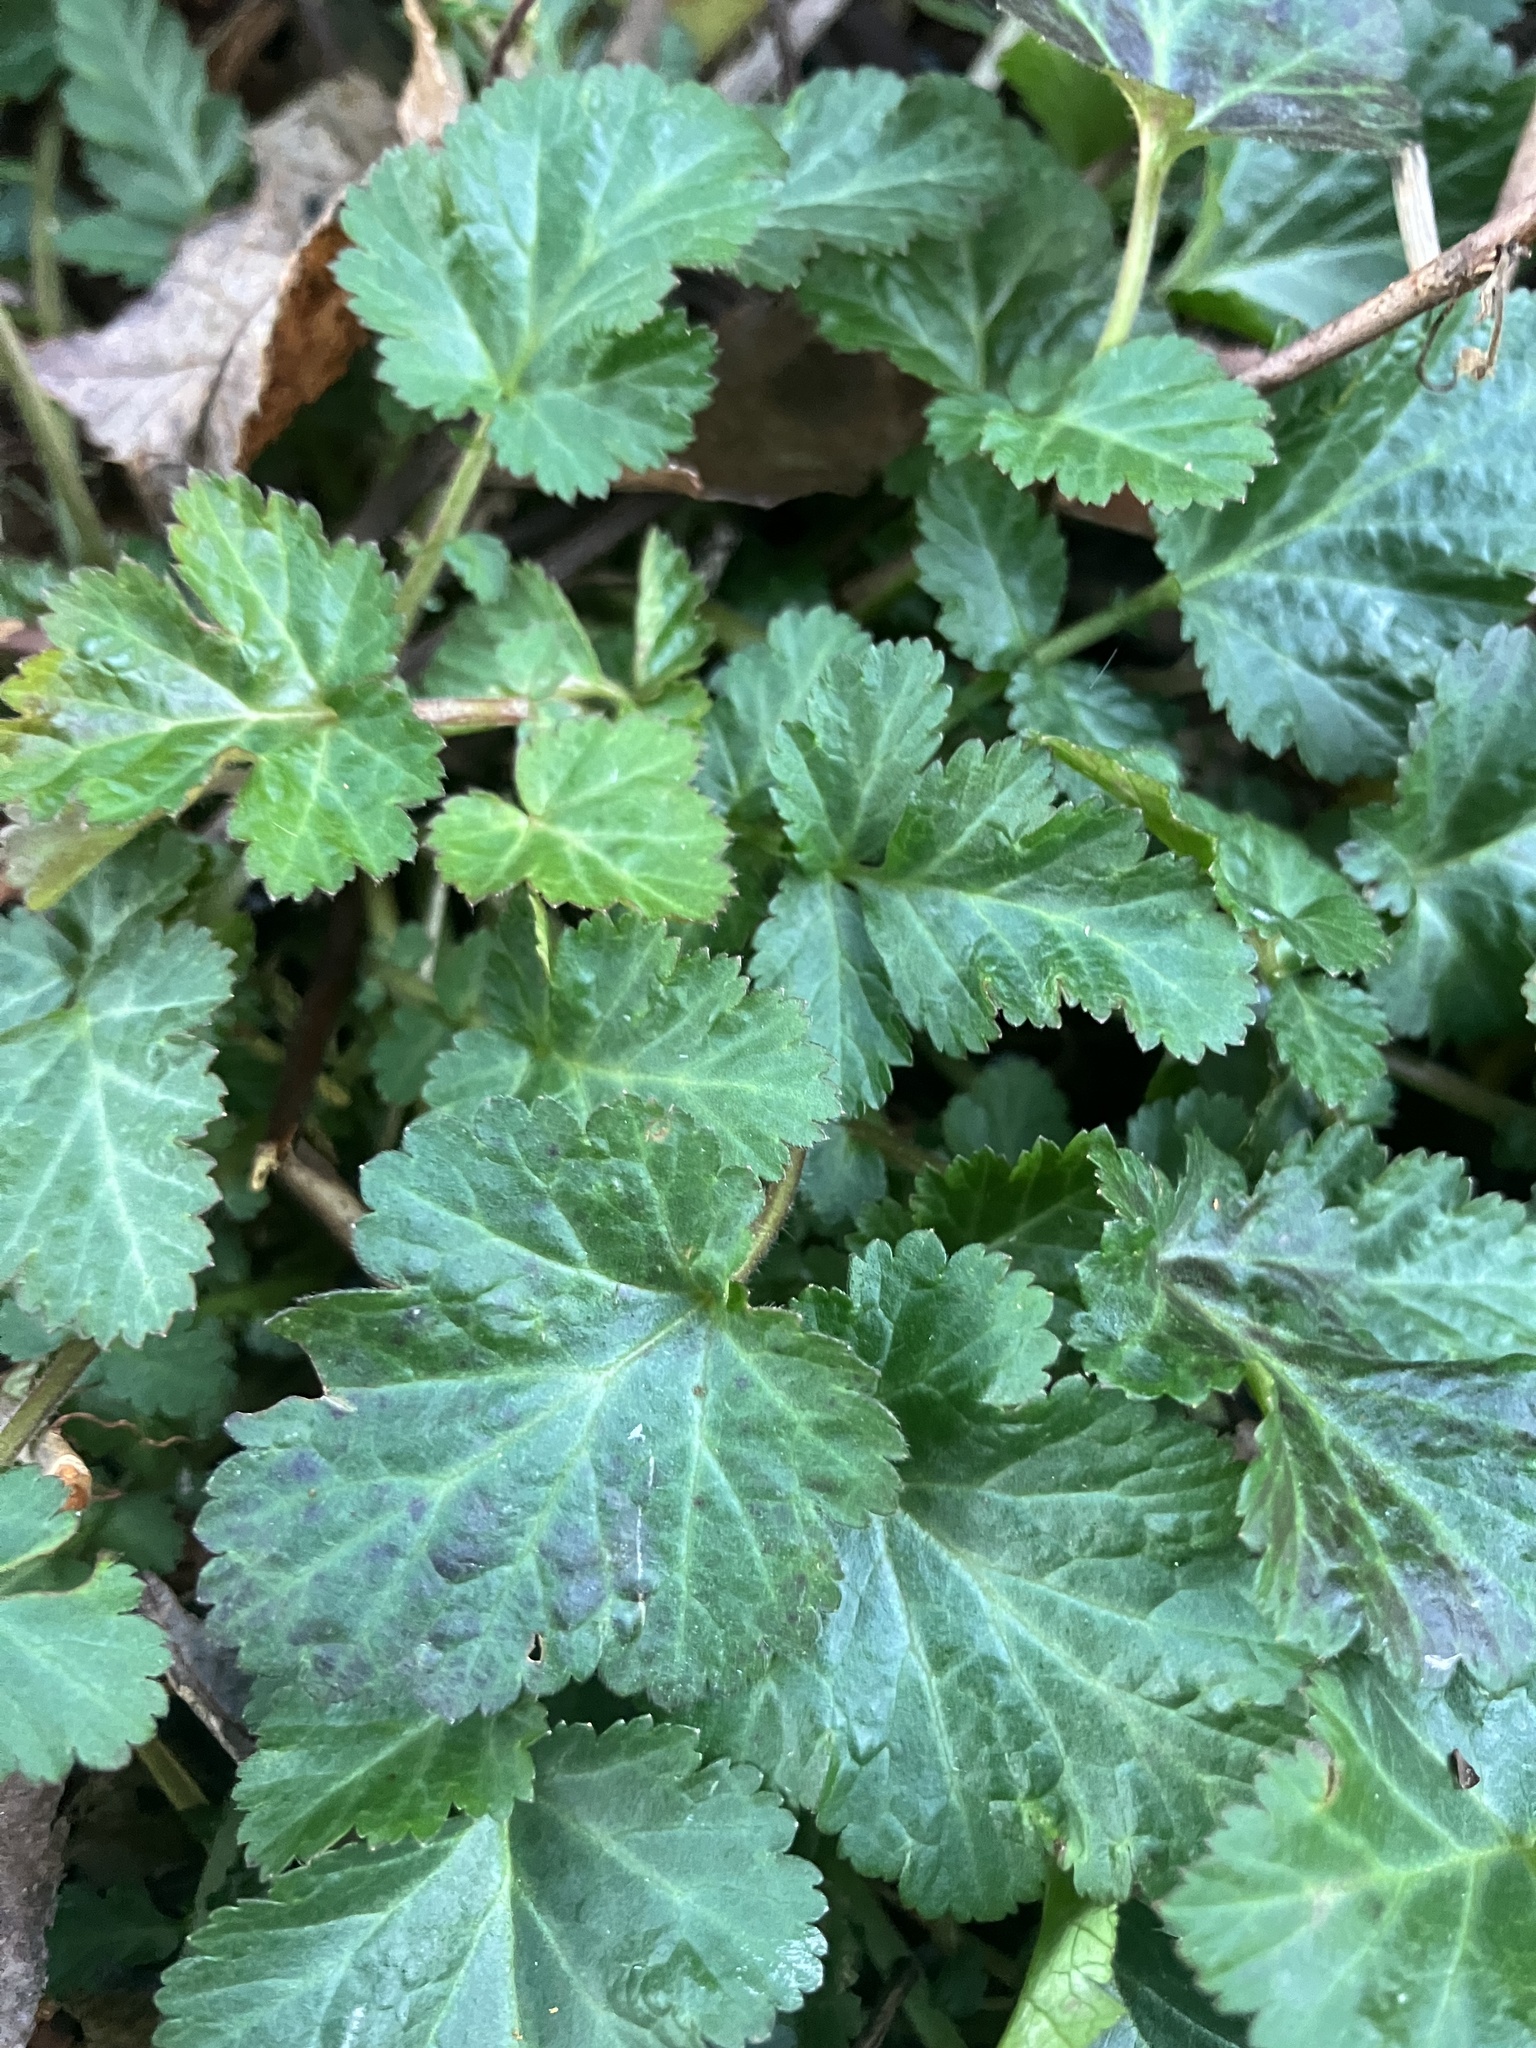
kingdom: Plantae
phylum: Tracheophyta
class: Magnoliopsida
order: Rosales
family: Rosaceae
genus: Geum
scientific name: Geum canadense
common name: White avens
